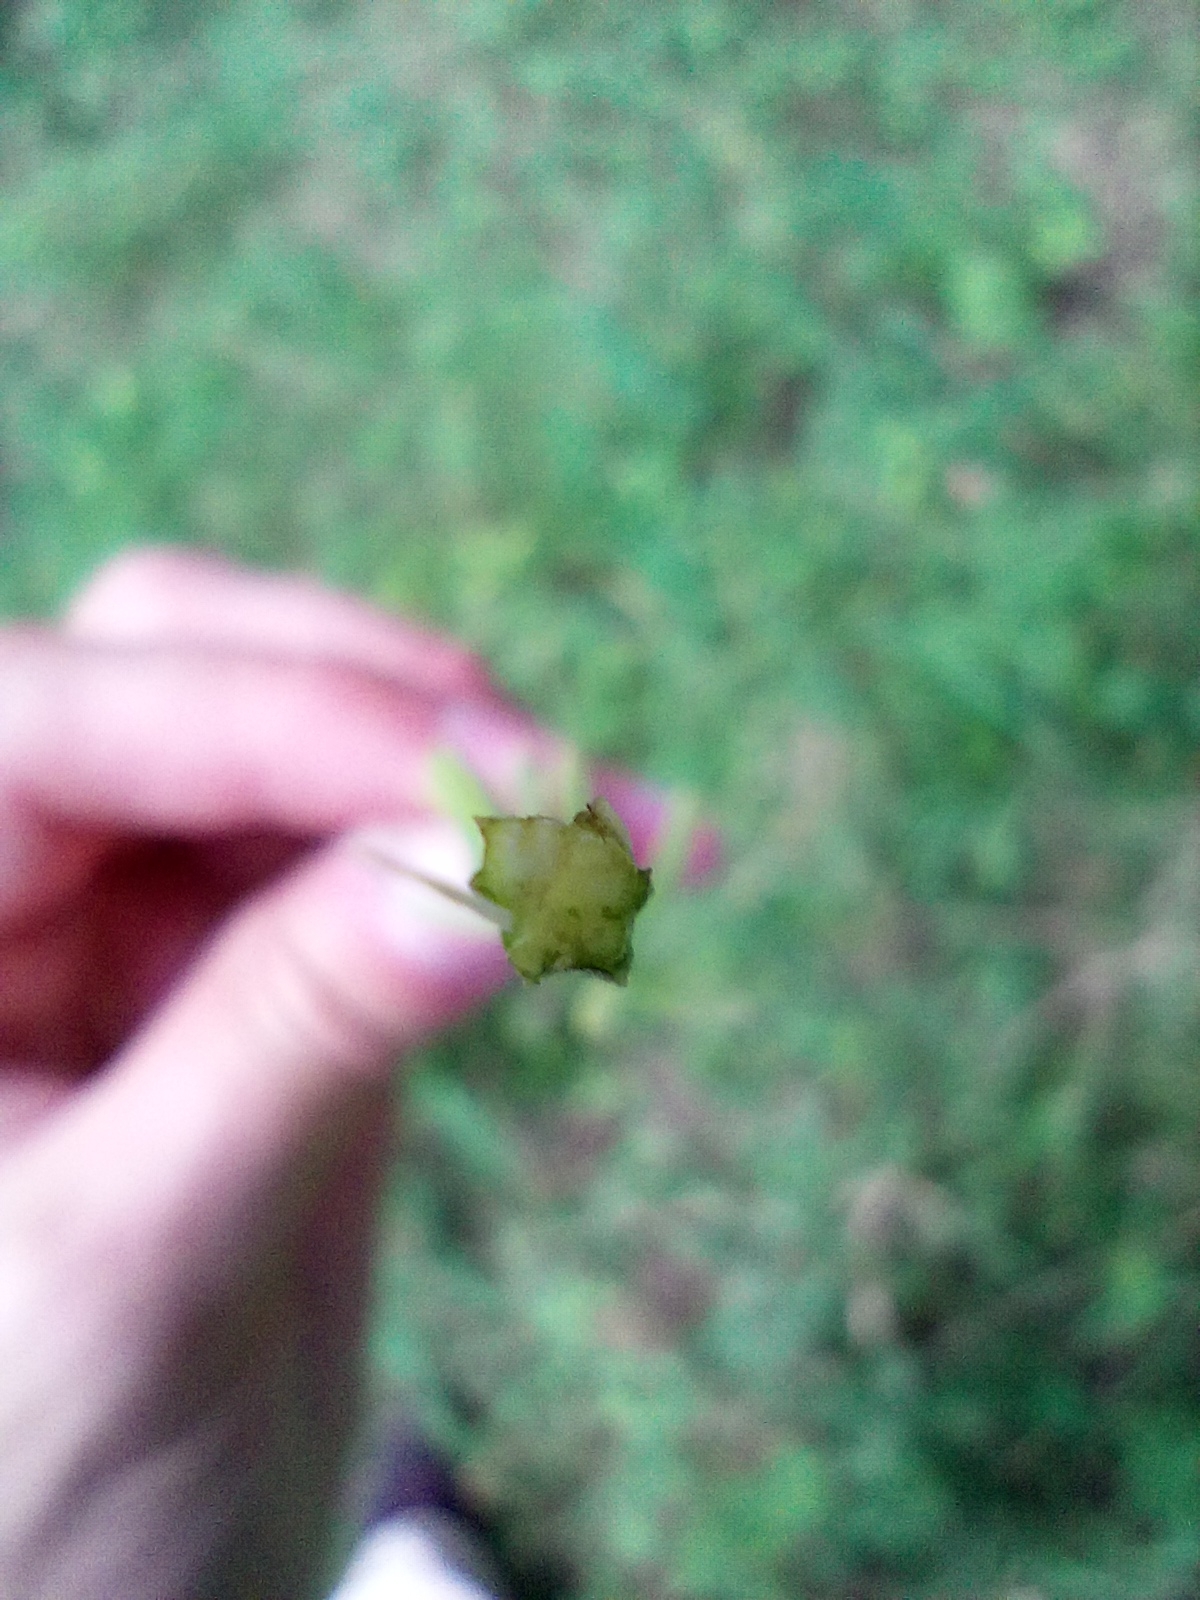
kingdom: Plantae
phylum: Tracheophyta
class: Magnoliopsida
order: Apiales
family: Apiaceae
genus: Selinum
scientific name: Selinum carvifolia
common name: Cambridge milk-parsley
